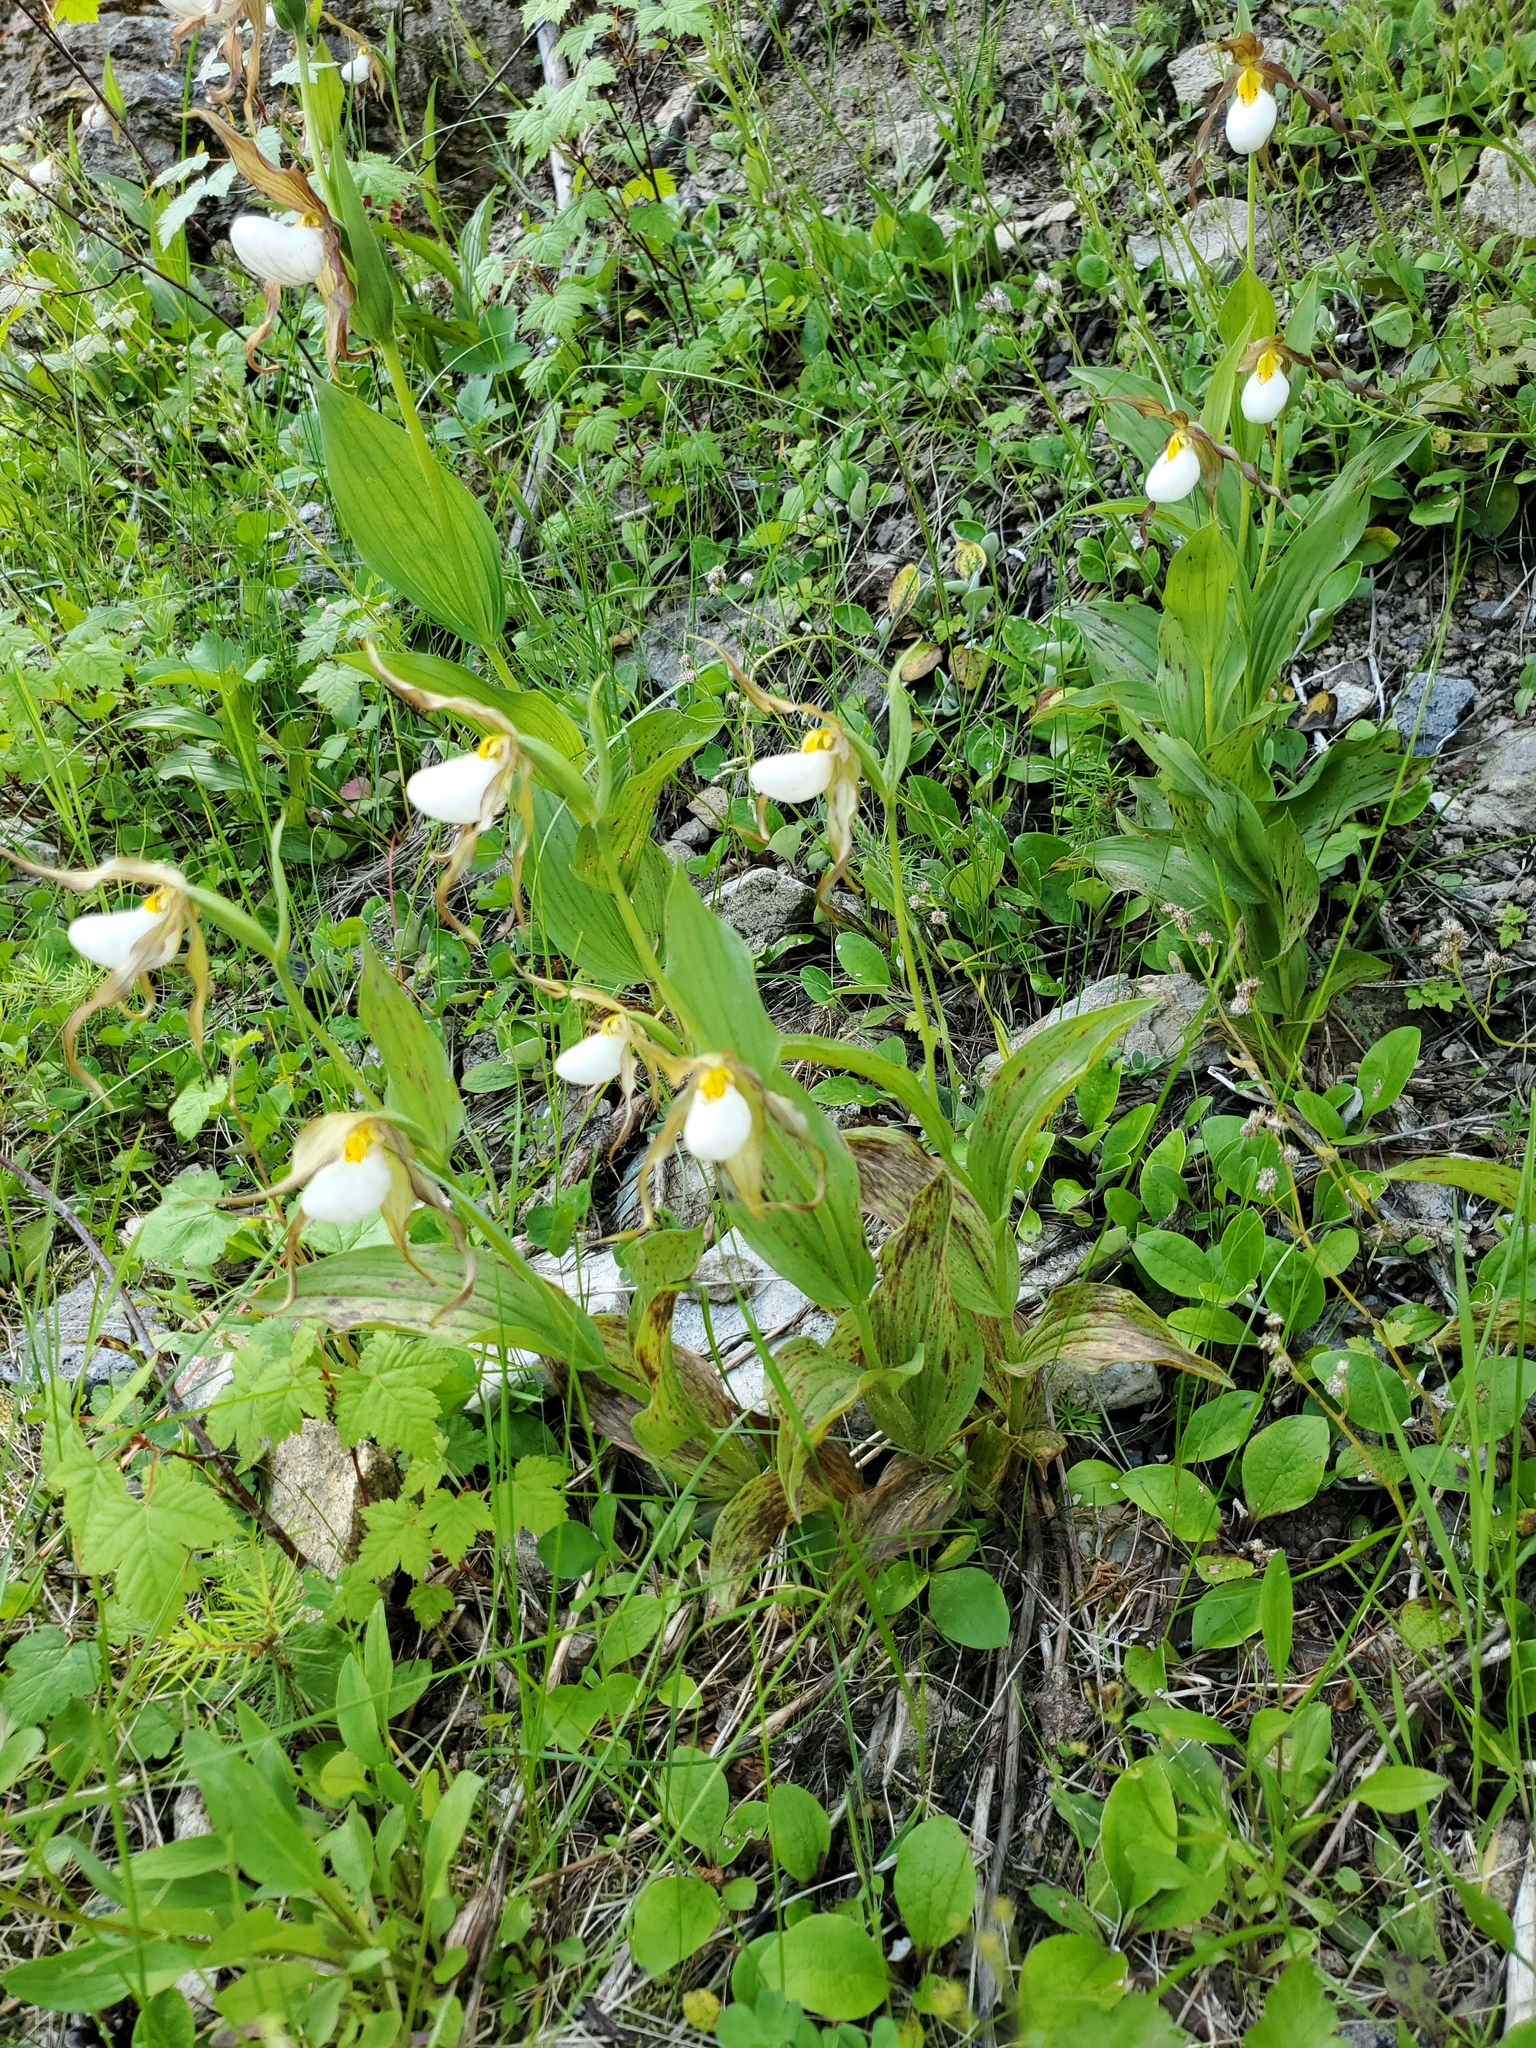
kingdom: Plantae
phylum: Tracheophyta
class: Liliopsida
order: Asparagales
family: Orchidaceae
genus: Cypripedium
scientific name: Cypripedium montanum
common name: Mountain lady's-slipper
